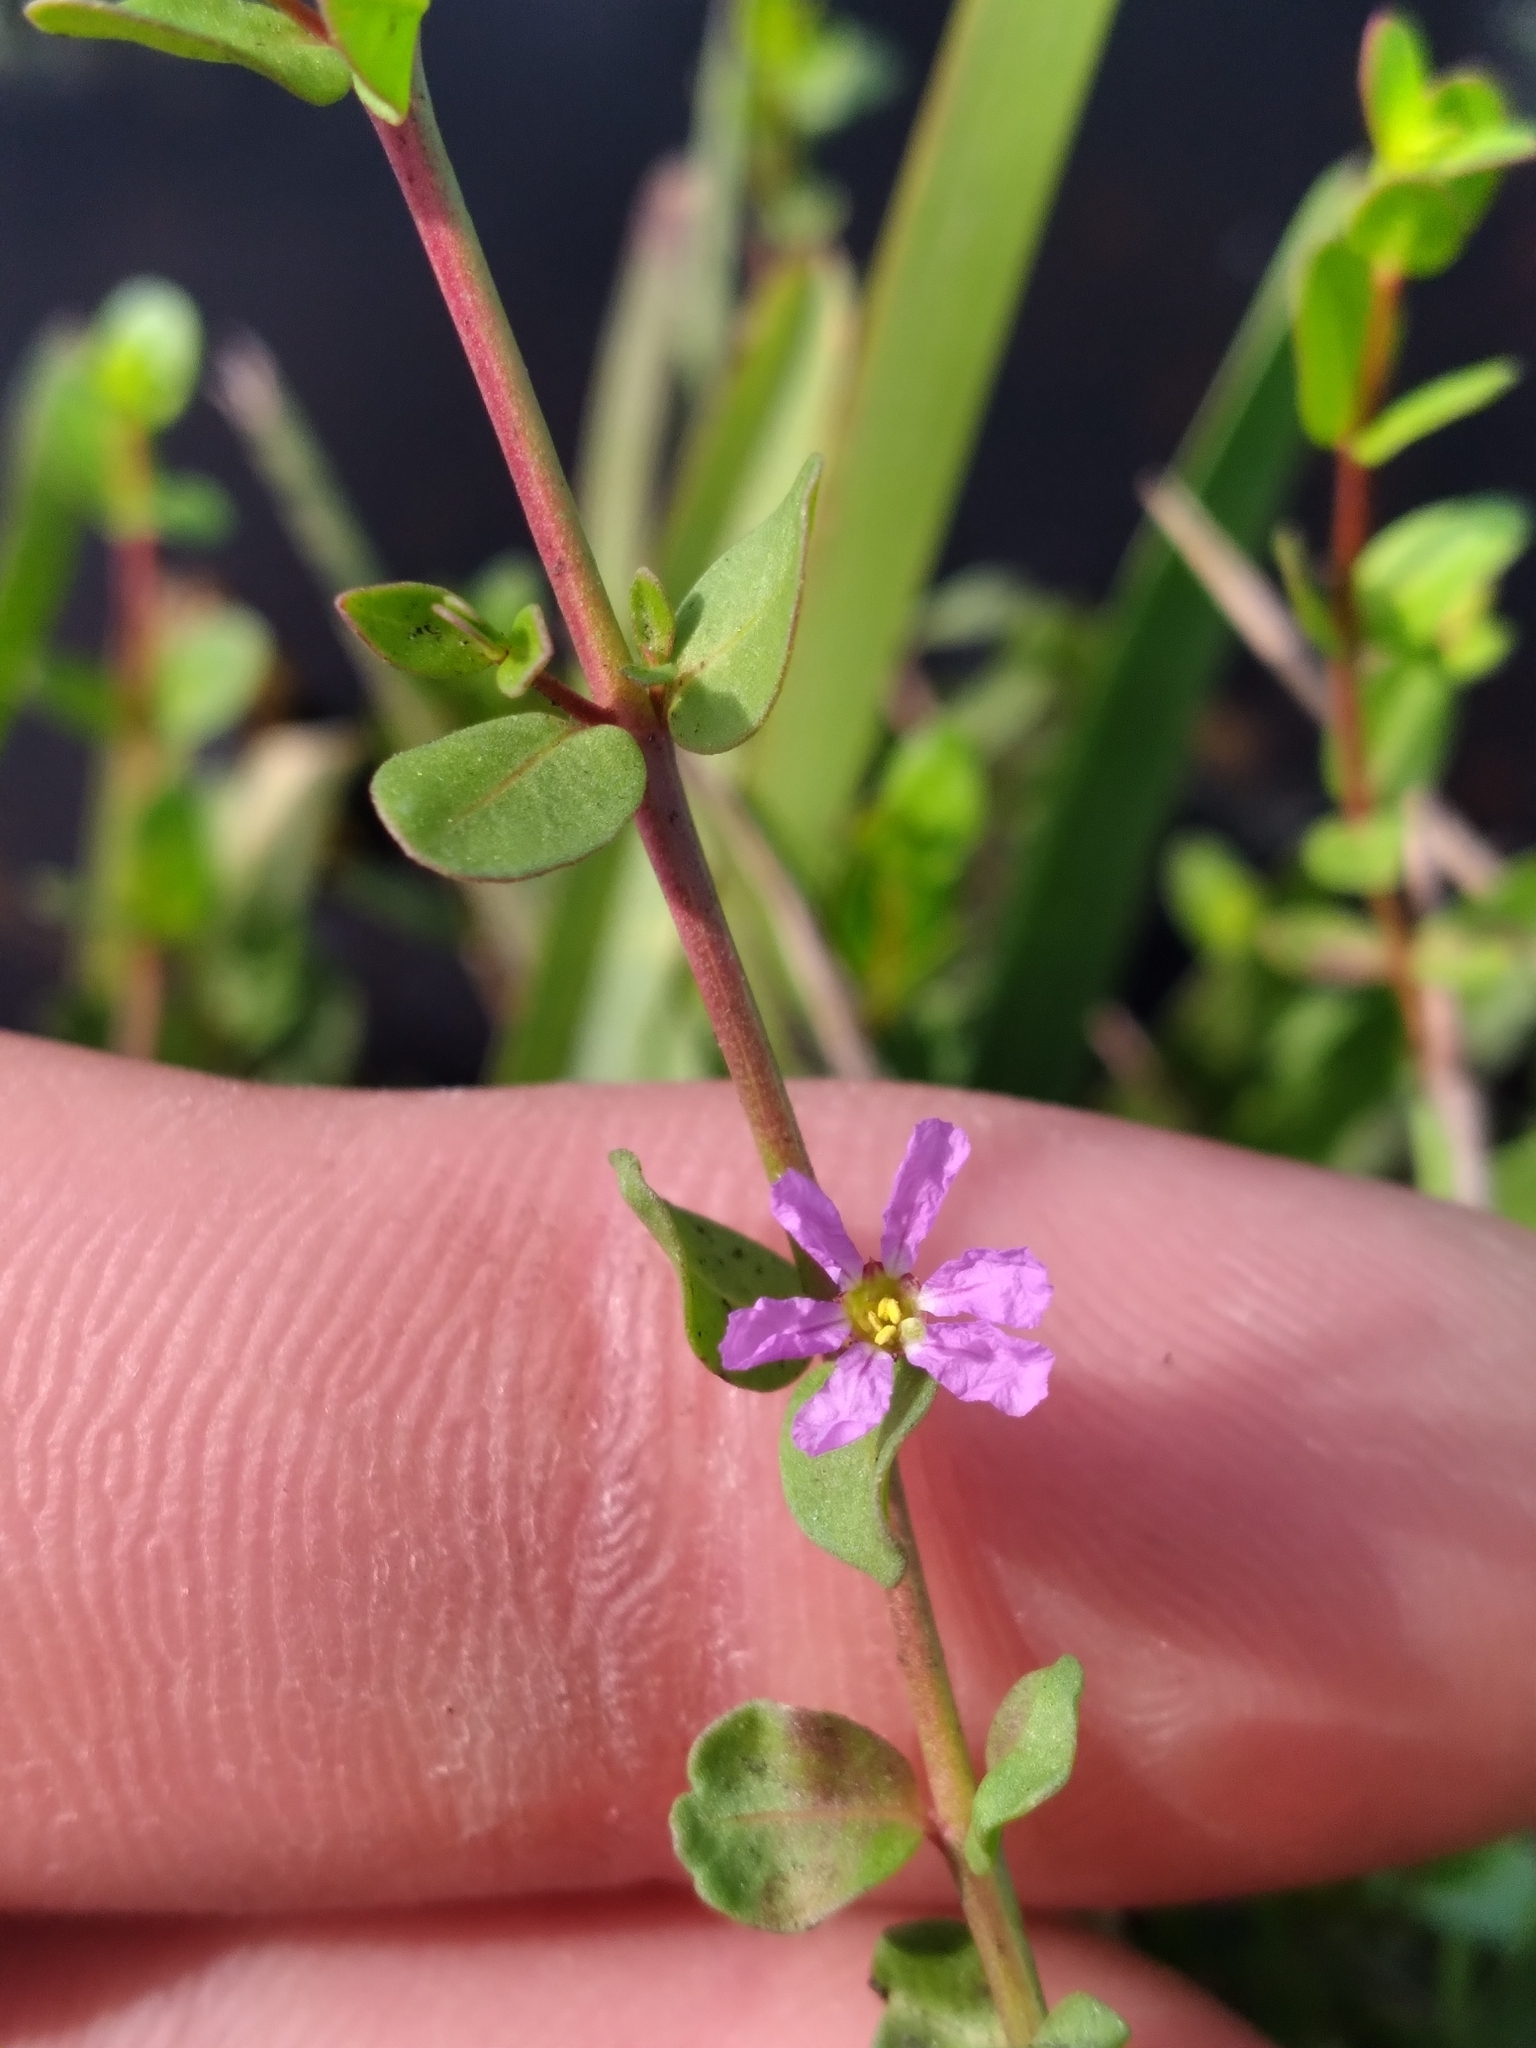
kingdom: Plantae
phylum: Tracheophyta
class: Magnoliopsida
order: Myrtales
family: Lythraceae
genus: Lythrum
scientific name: Lythrum flagellare
